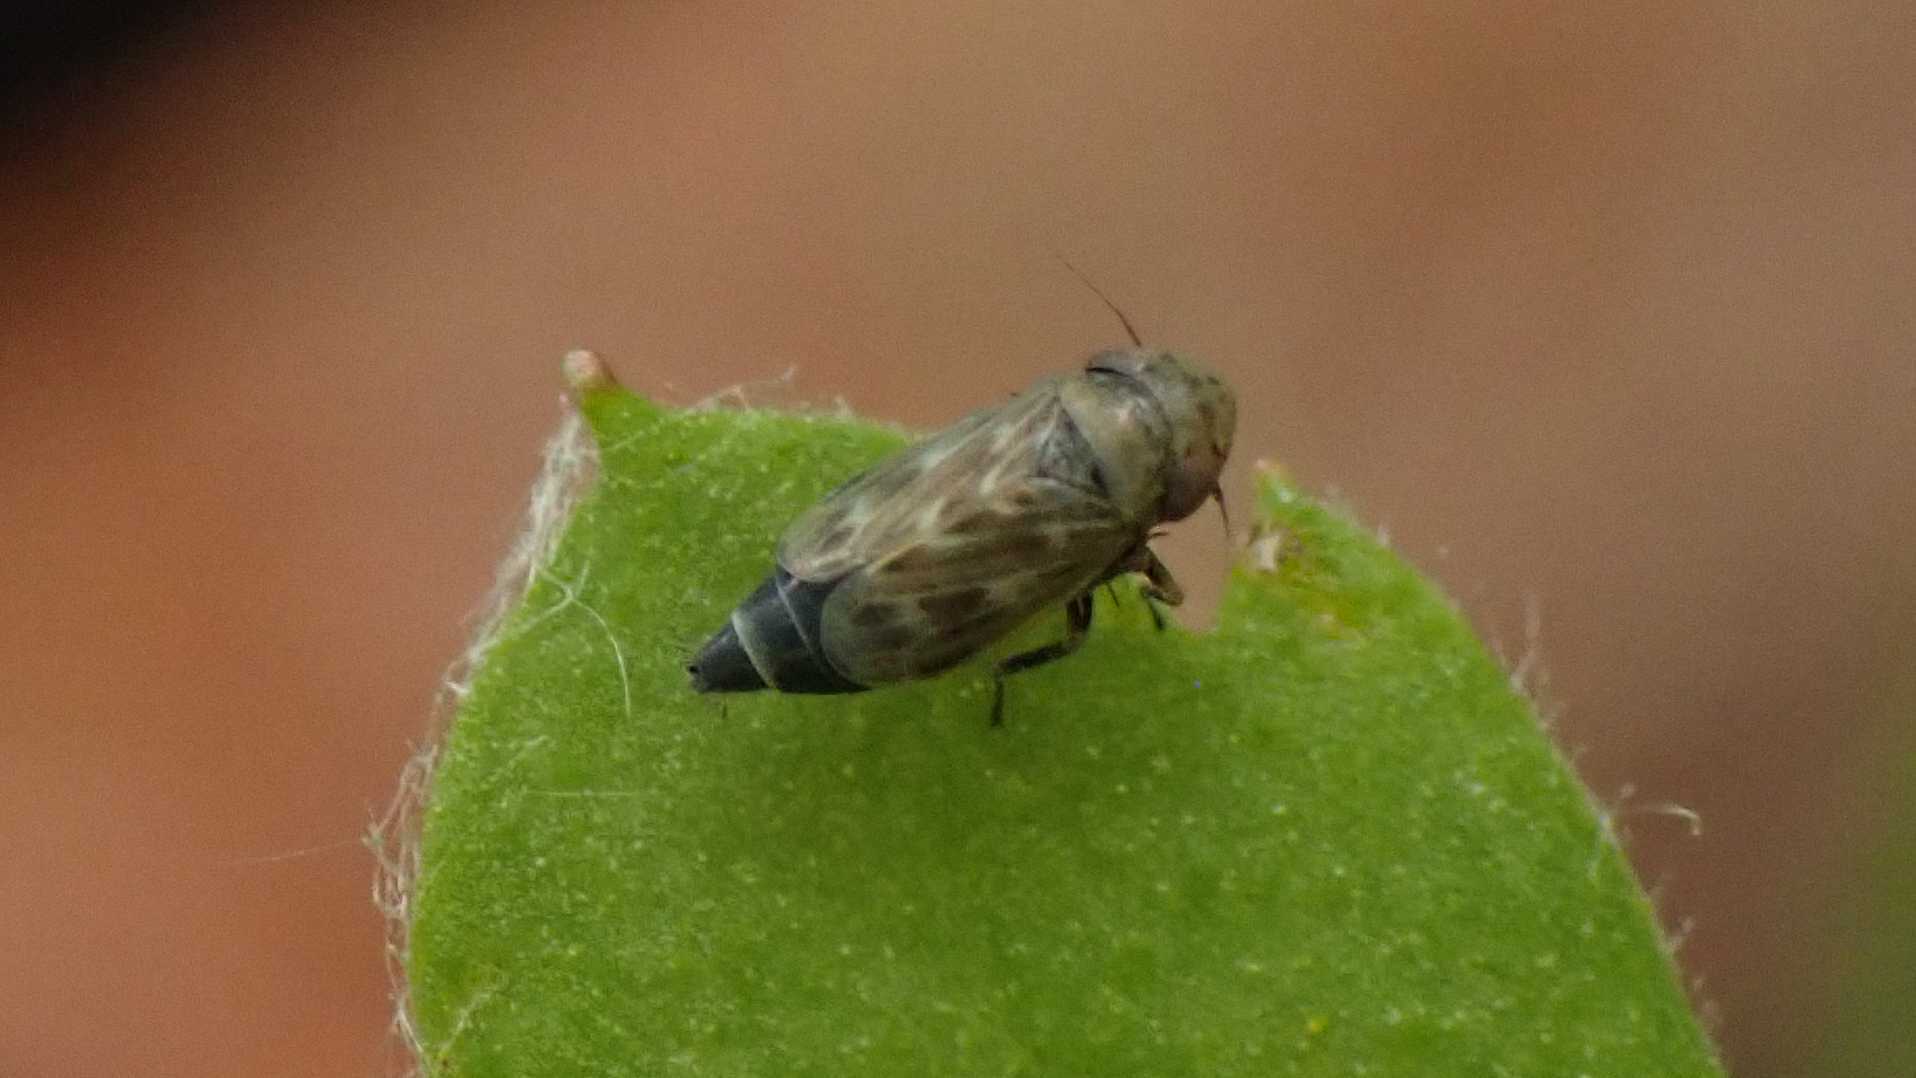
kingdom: Animalia
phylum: Arthropoda
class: Insecta
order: Hemiptera
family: Cicadellidae
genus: Deltocephalus
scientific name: Deltocephalus pulicaris
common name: Leafhopper
